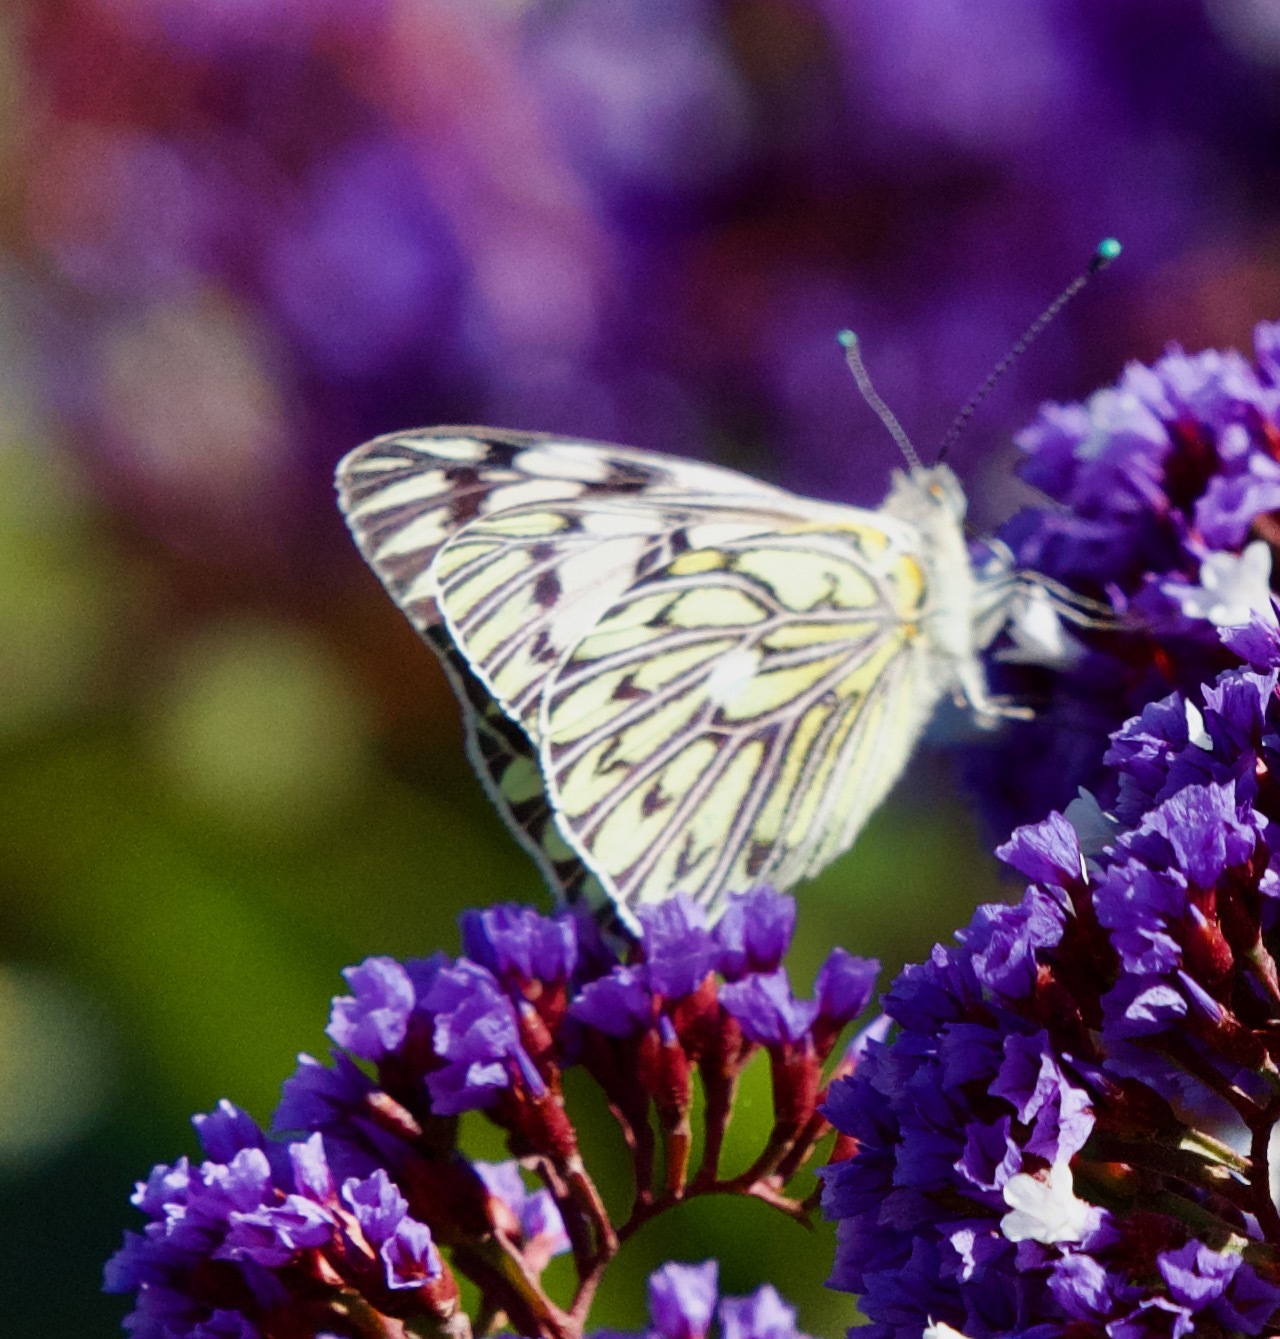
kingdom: Animalia
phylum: Arthropoda
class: Insecta
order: Lepidoptera
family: Pieridae
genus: Tatochila
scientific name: Tatochila autodice
